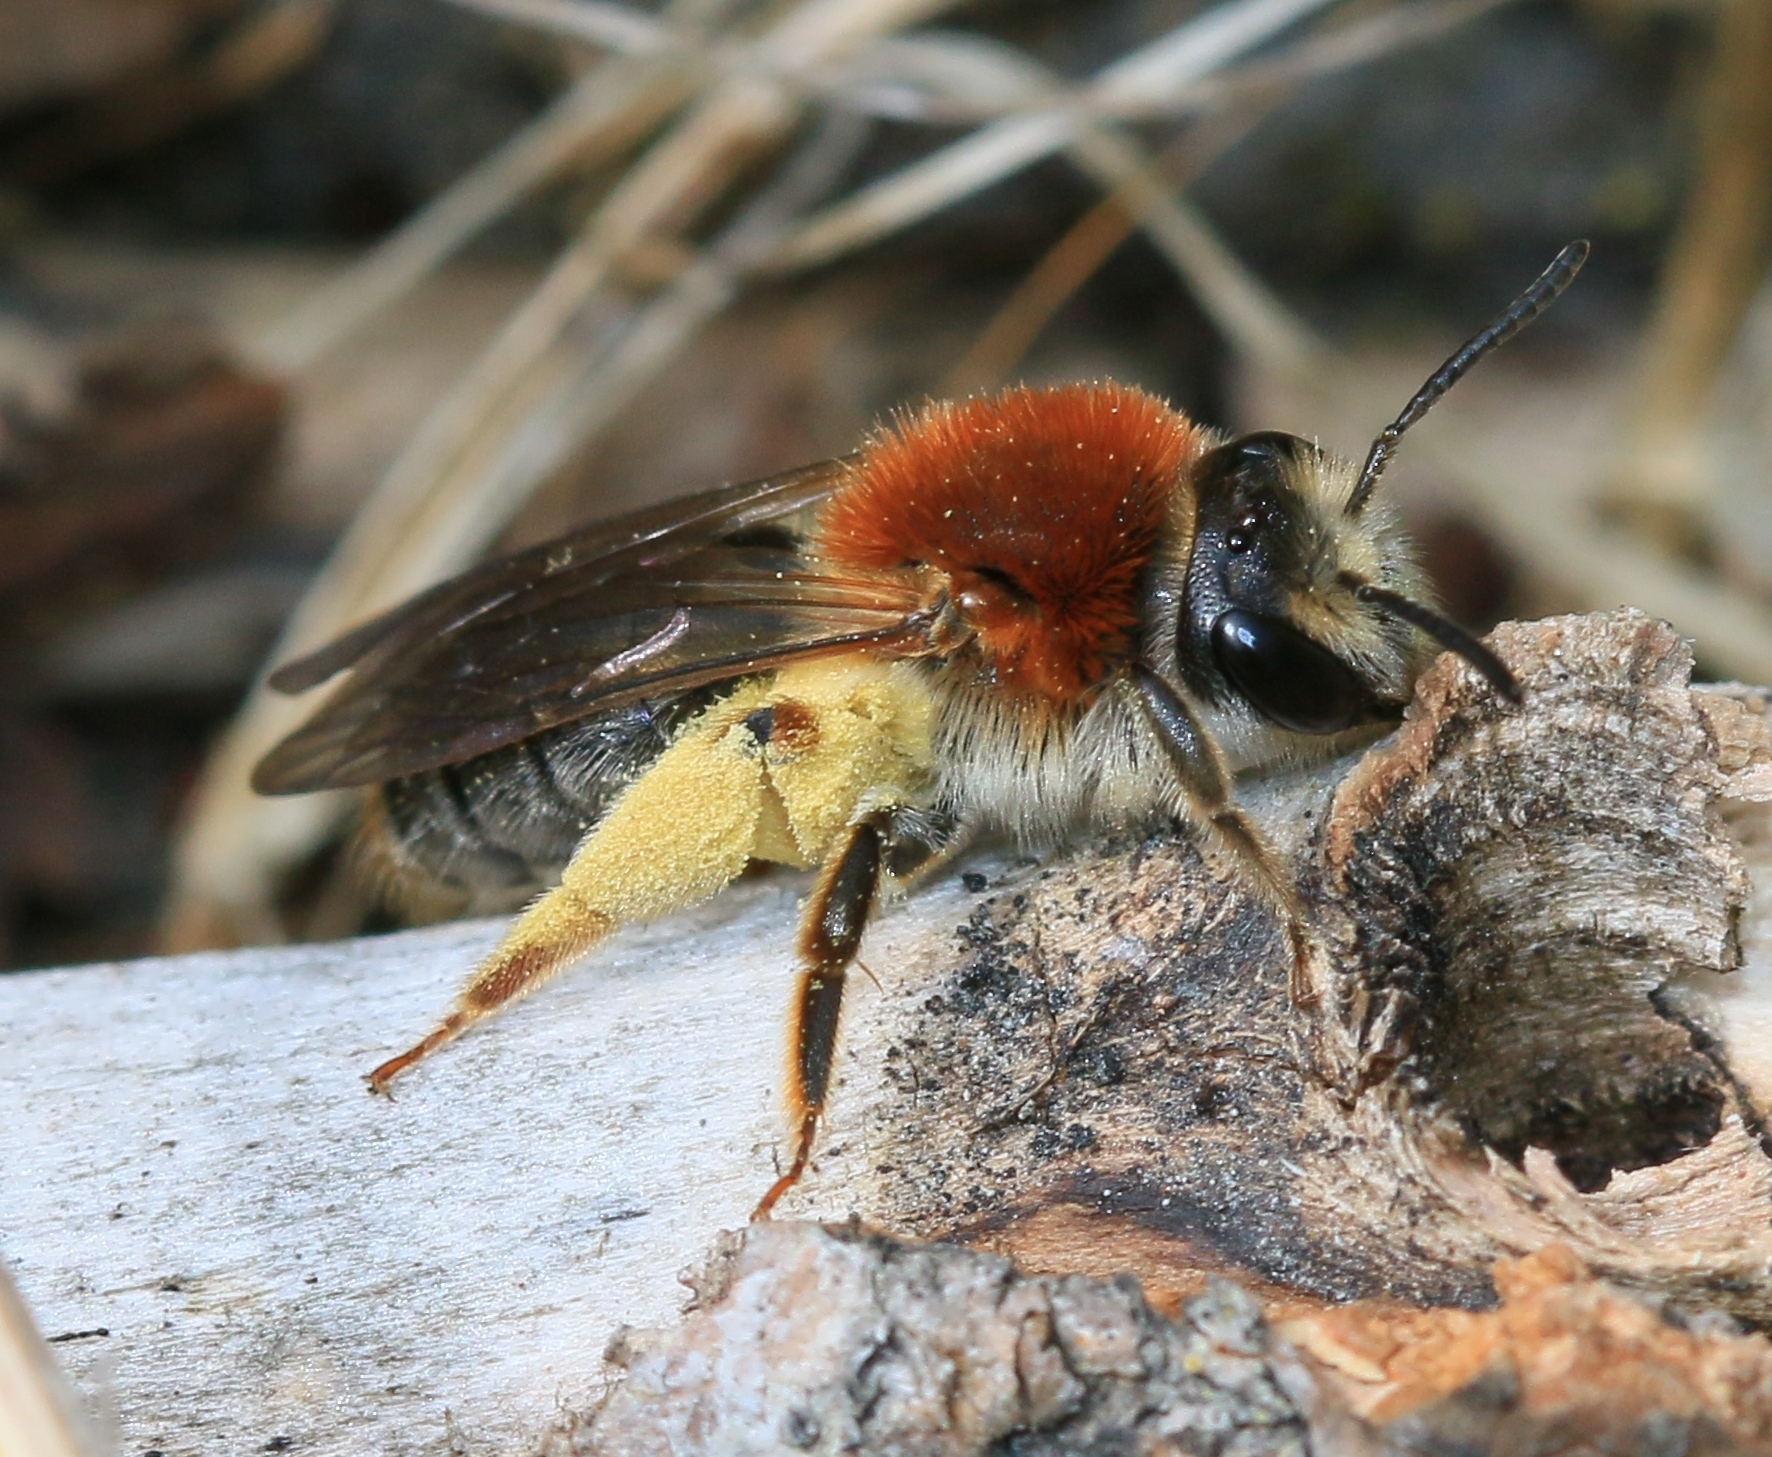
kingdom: Animalia
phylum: Arthropoda
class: Insecta
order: Hymenoptera
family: Andrenidae
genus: Andrena
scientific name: Andrena haemorrhoa
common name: Early mining bee
